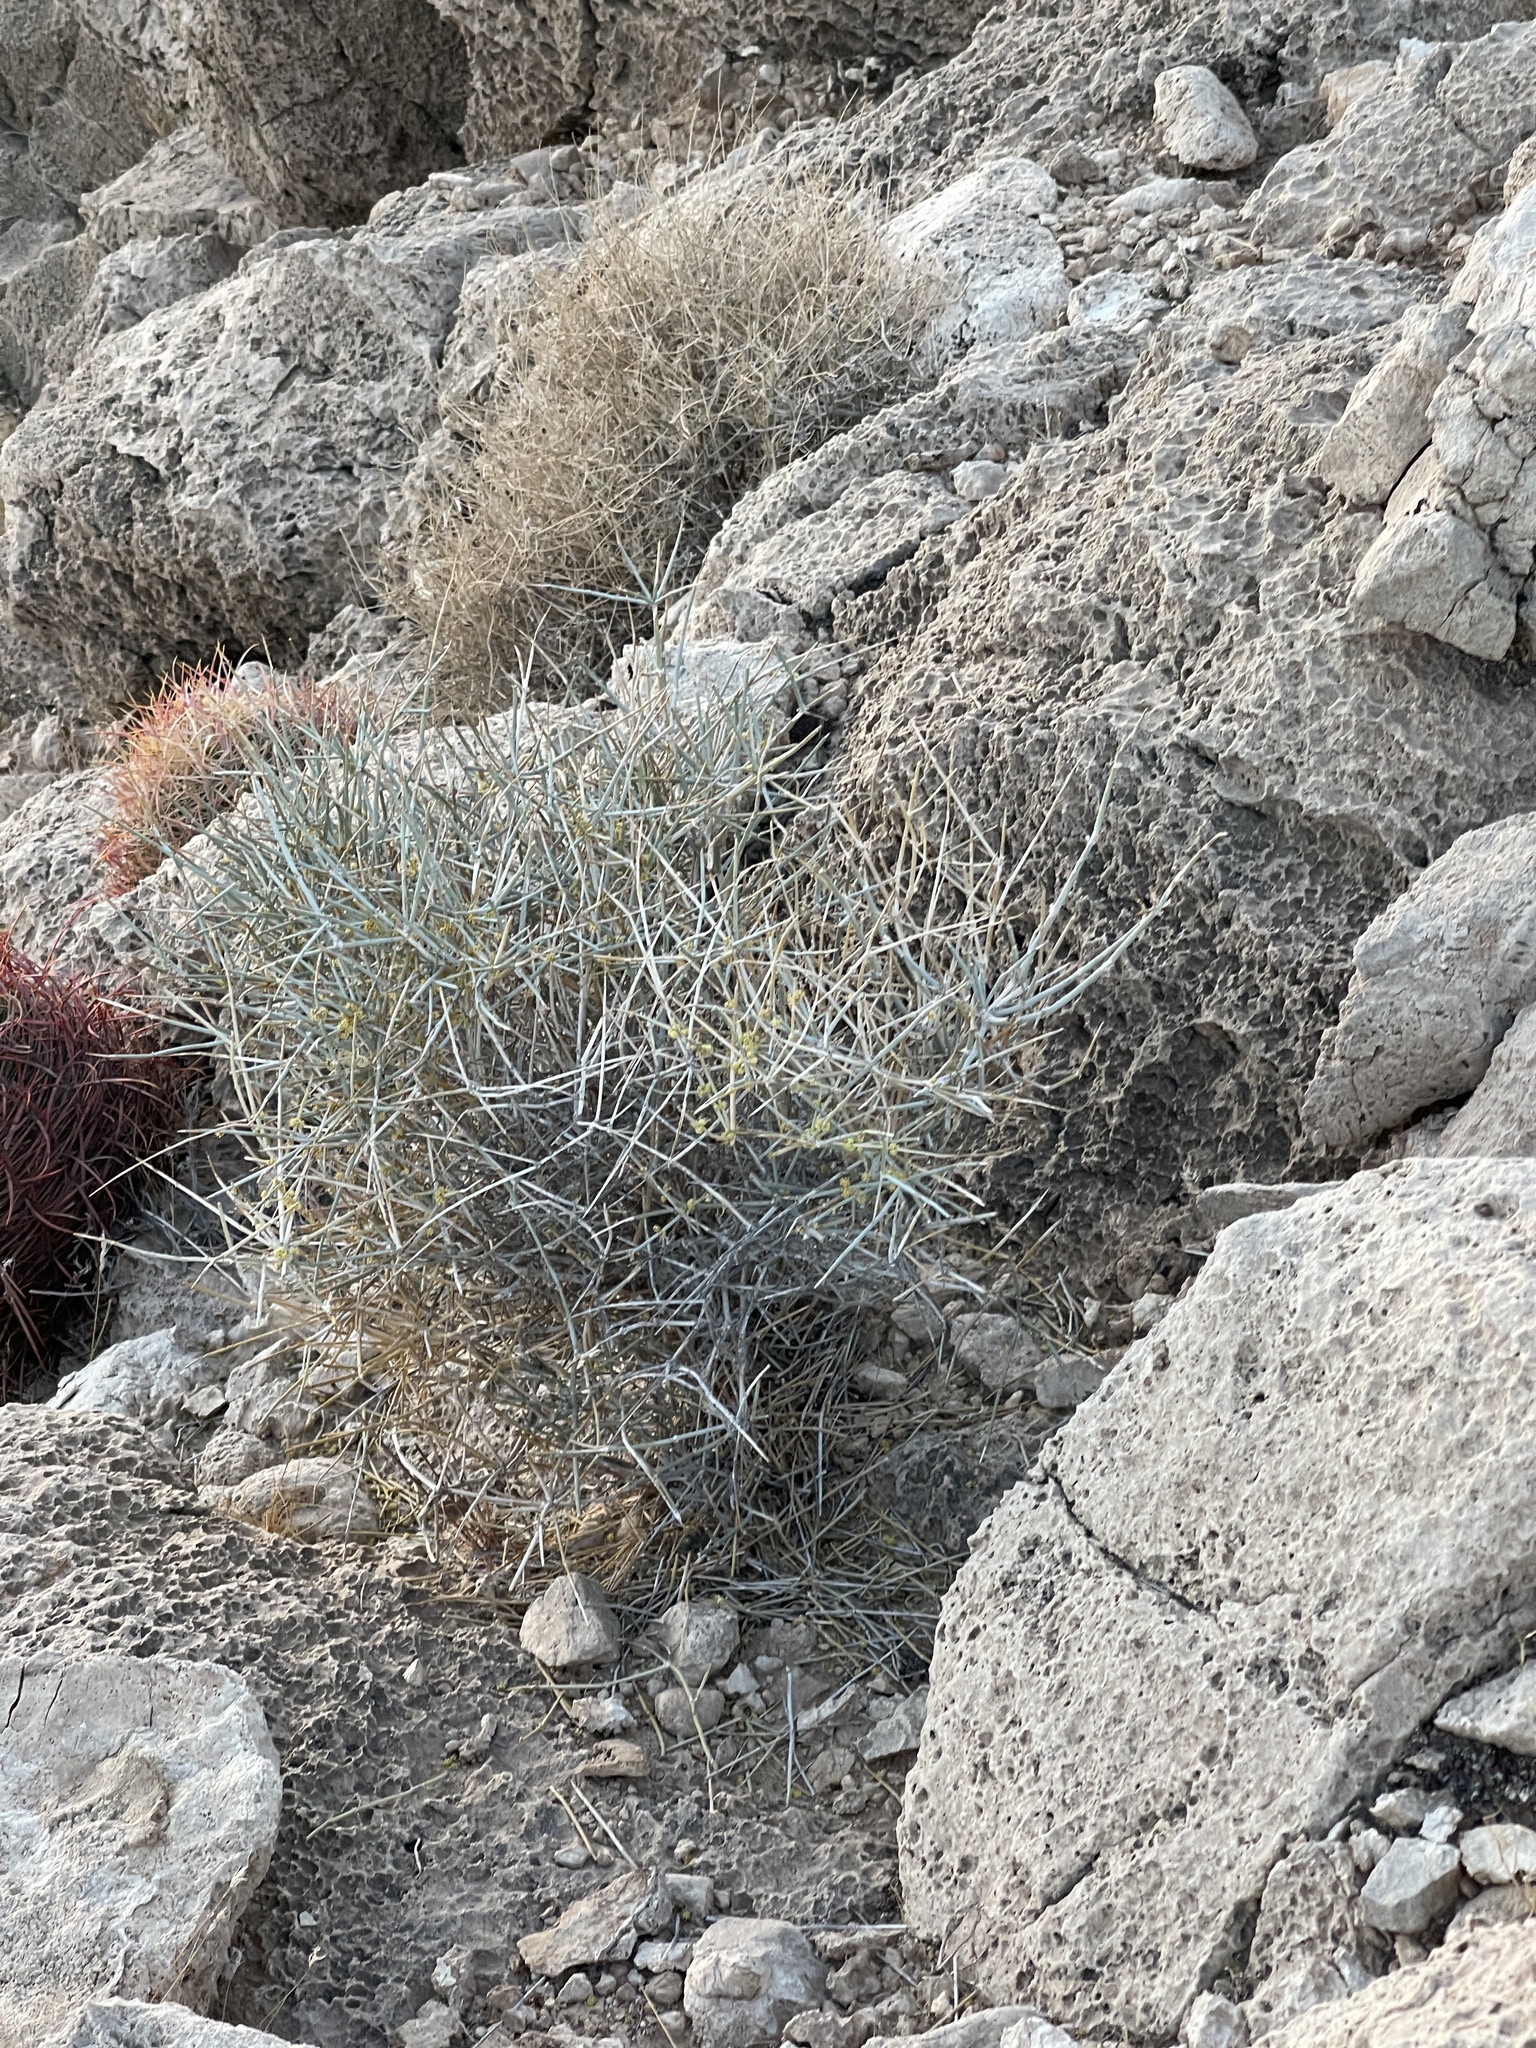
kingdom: Plantae
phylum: Tracheophyta
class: Gnetopsida
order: Ephedrales
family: Ephedraceae
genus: Ephedra
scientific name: Ephedra nevadensis
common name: Gray ephedra
